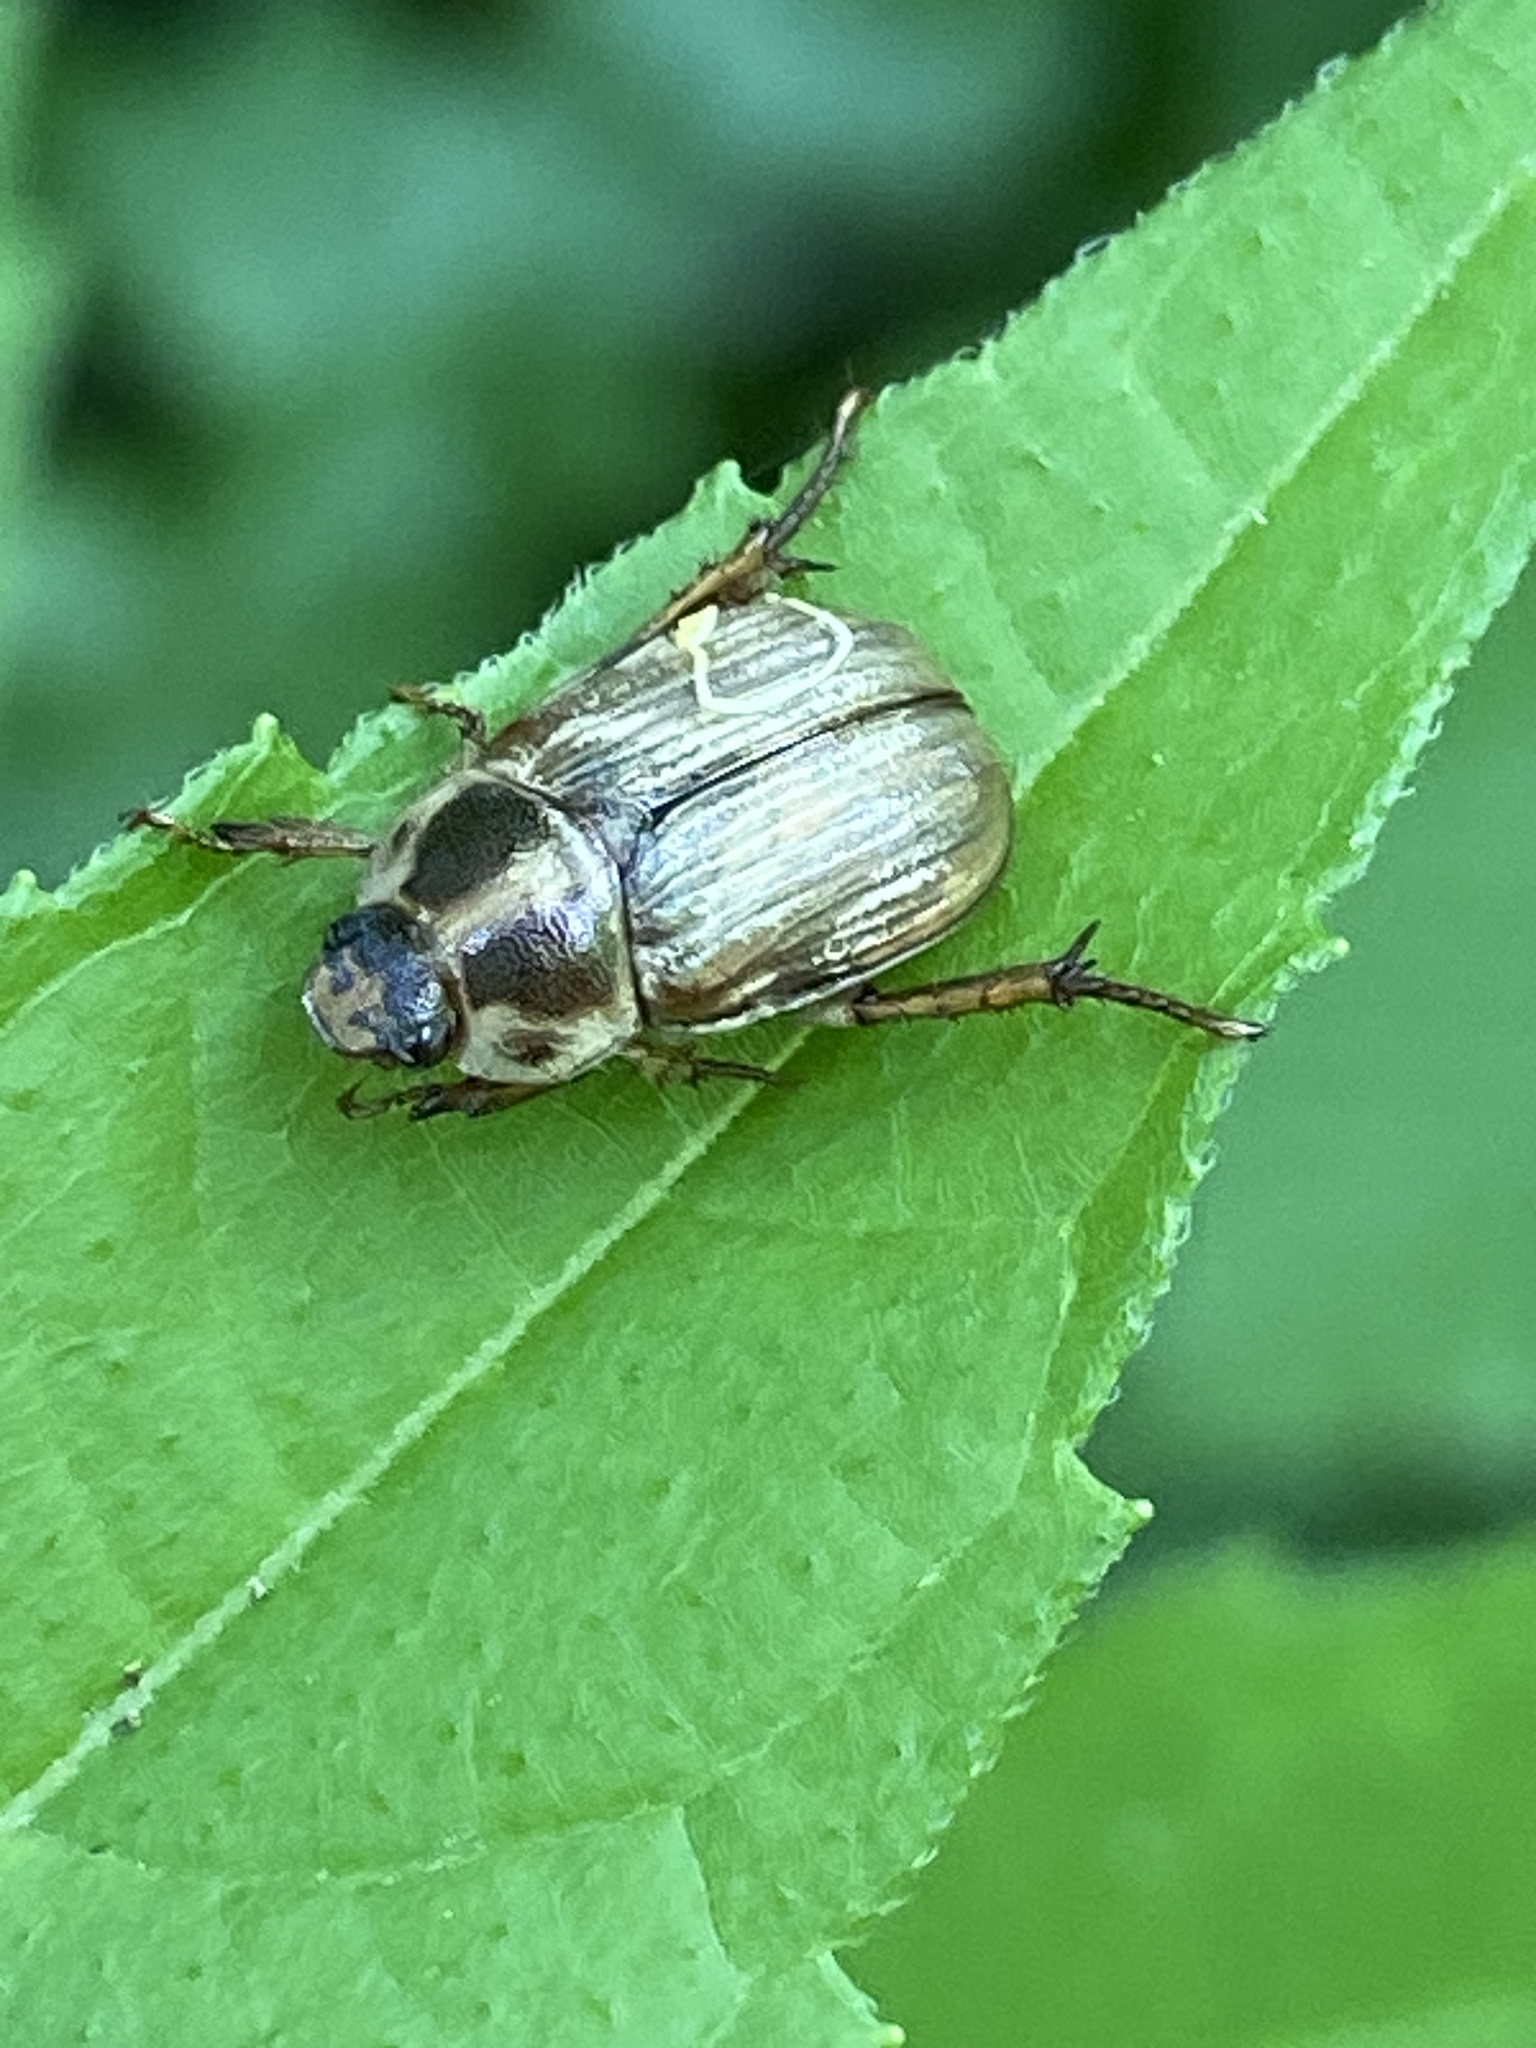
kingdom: Animalia
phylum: Arthropoda
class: Insecta
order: Coleoptera
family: Scarabaeidae
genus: Exomala
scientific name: Exomala orientalis
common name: Oriental beetle
